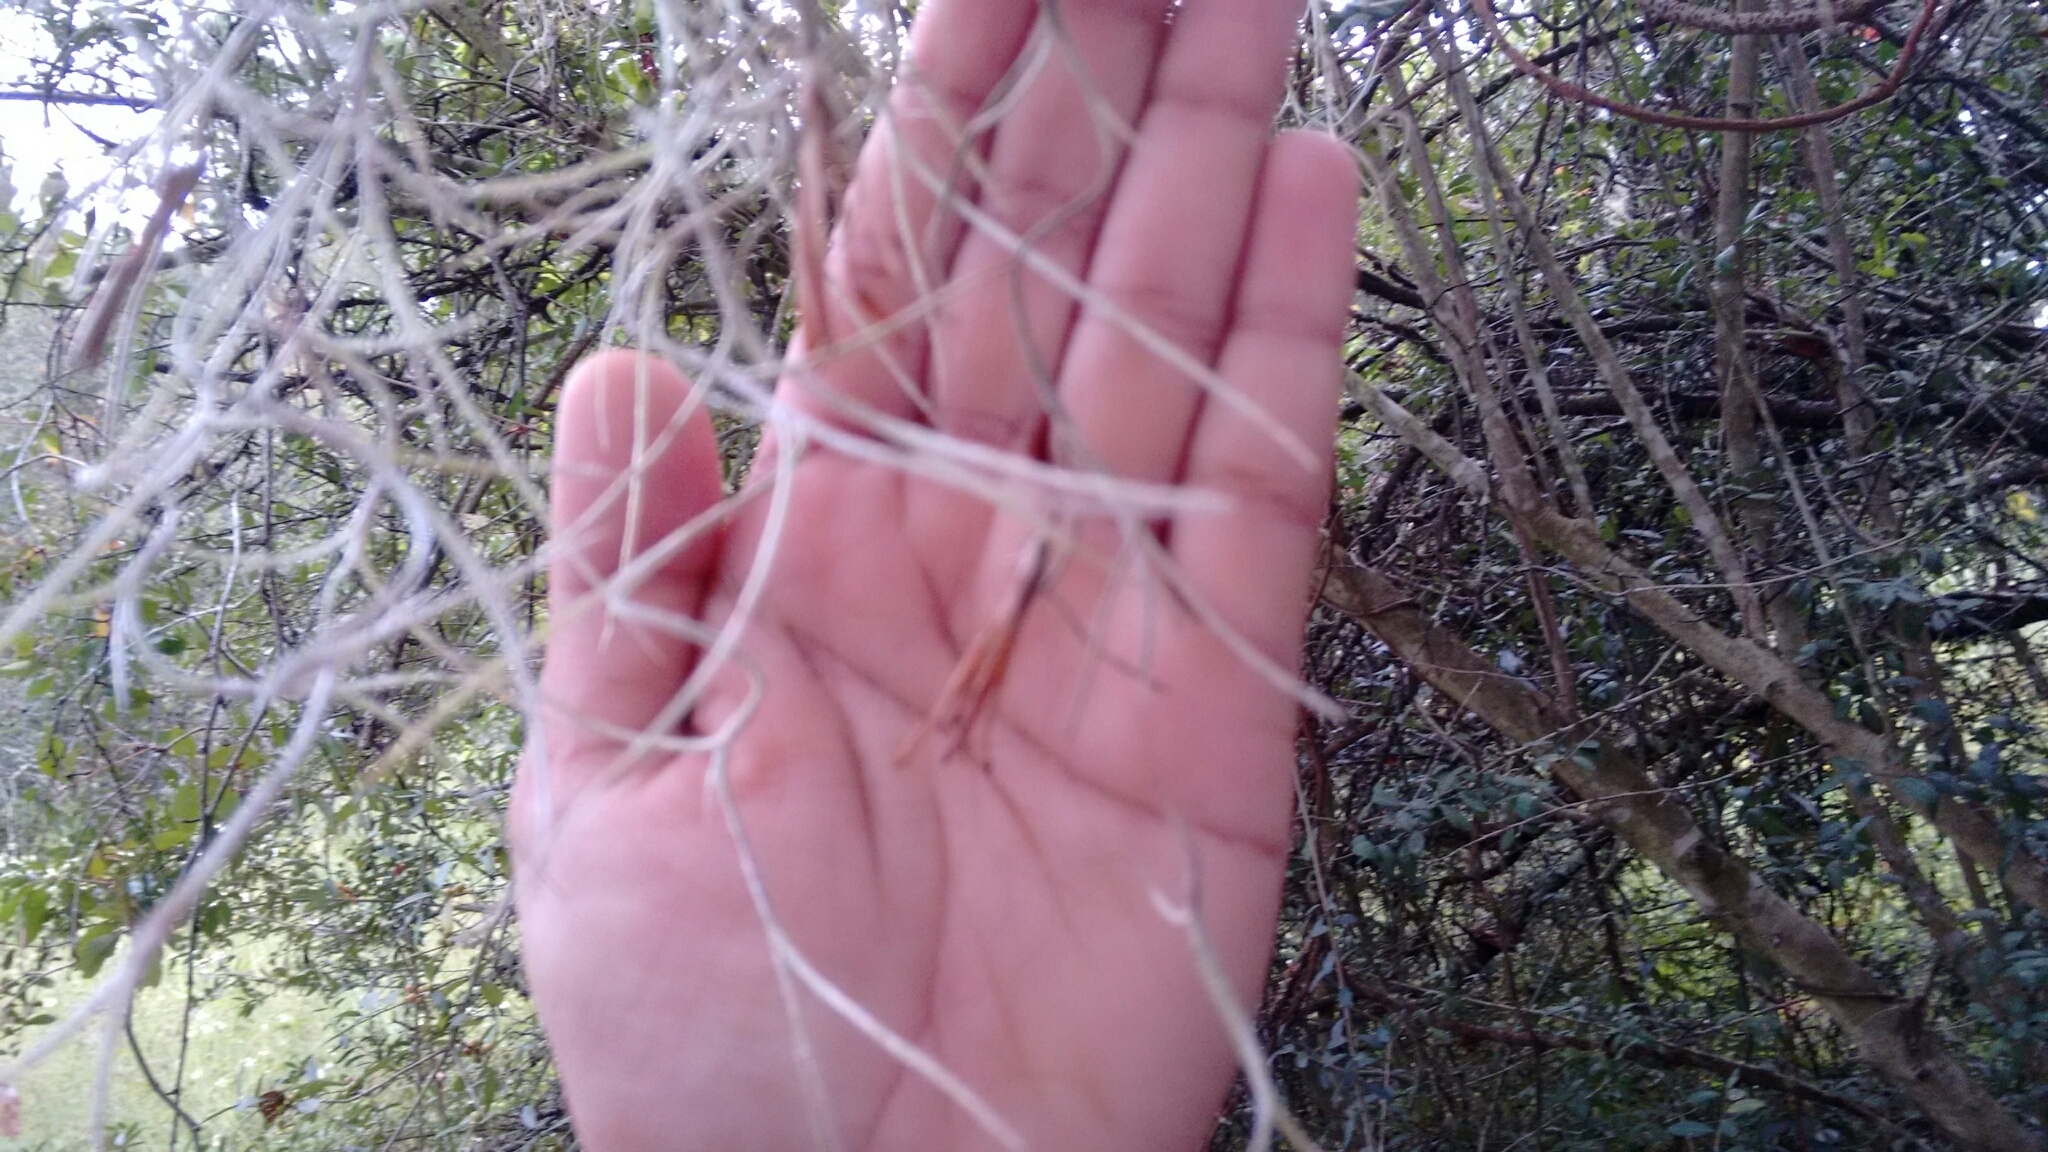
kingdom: Plantae
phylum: Tracheophyta
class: Liliopsida
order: Poales
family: Bromeliaceae
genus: Tillandsia
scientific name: Tillandsia usneoides
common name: Spanish moss
